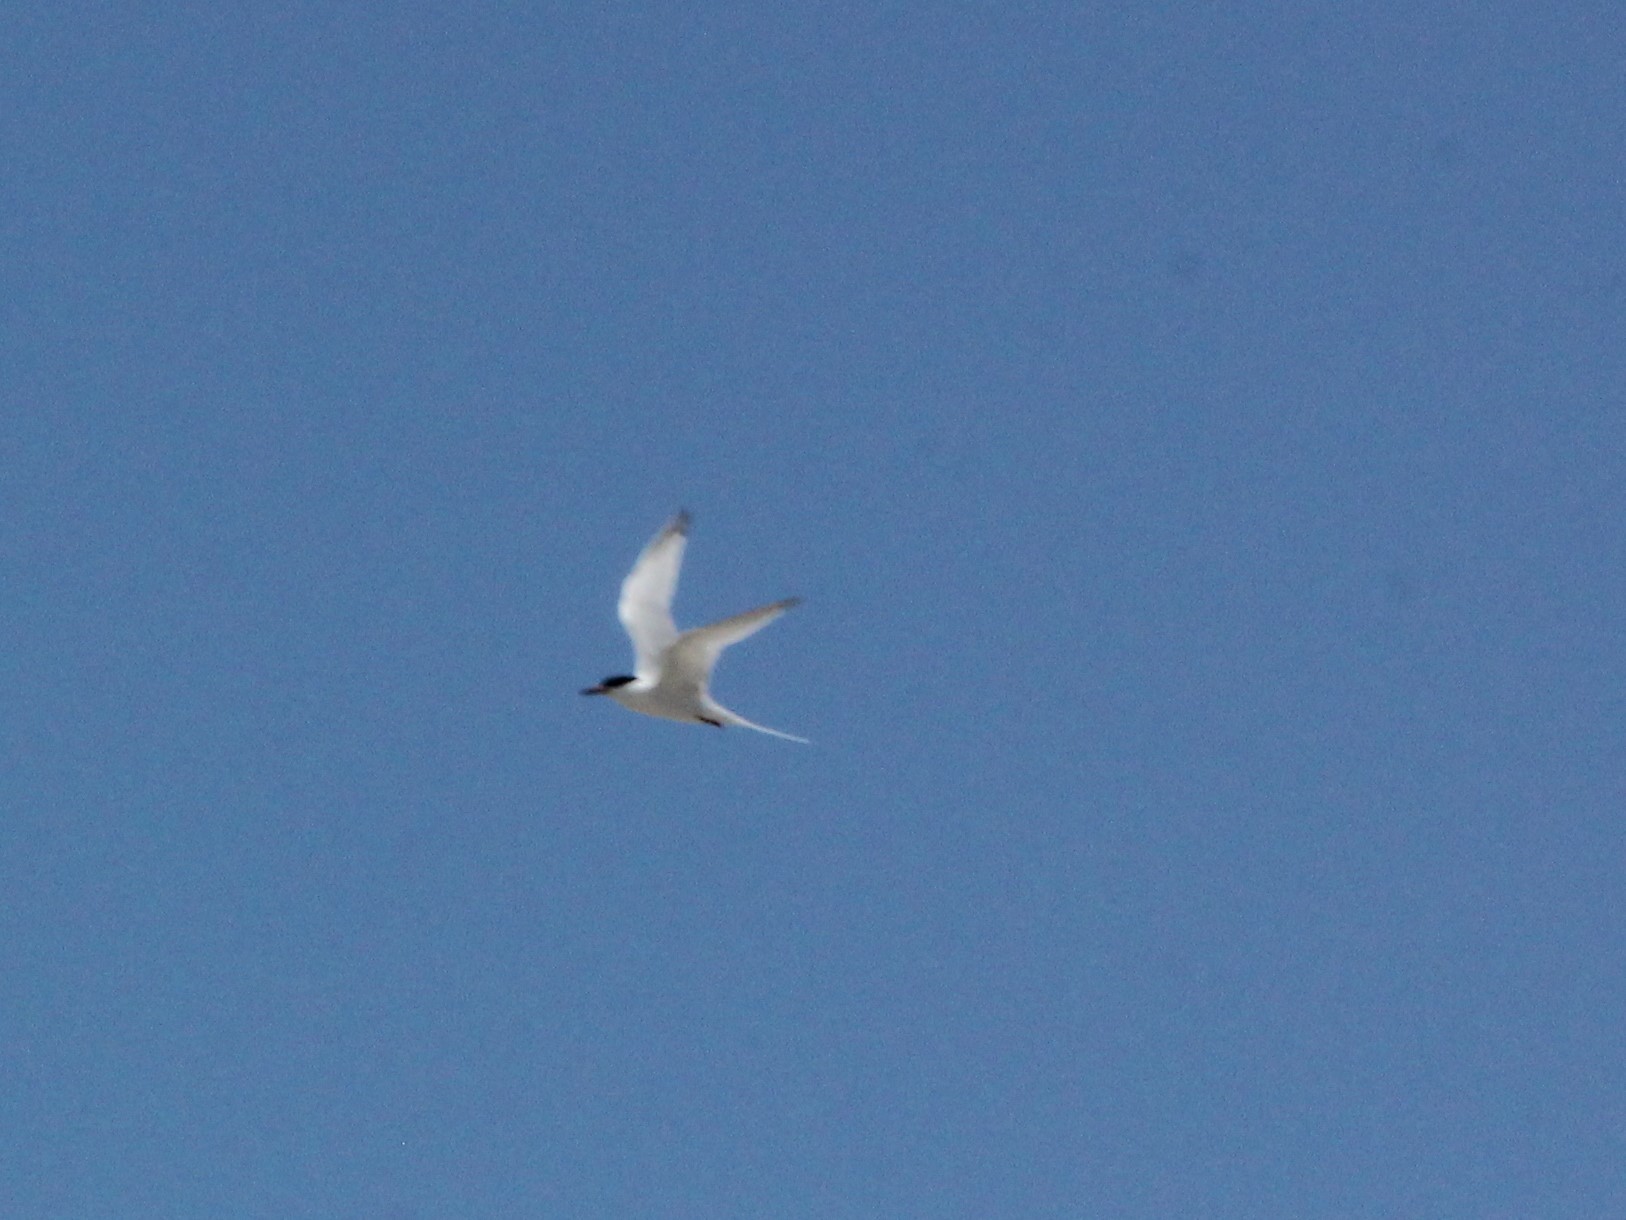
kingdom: Animalia
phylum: Chordata
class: Aves
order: Charadriiformes
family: Laridae
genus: Sterna
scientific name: Sterna dougallii
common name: Roseate tern
